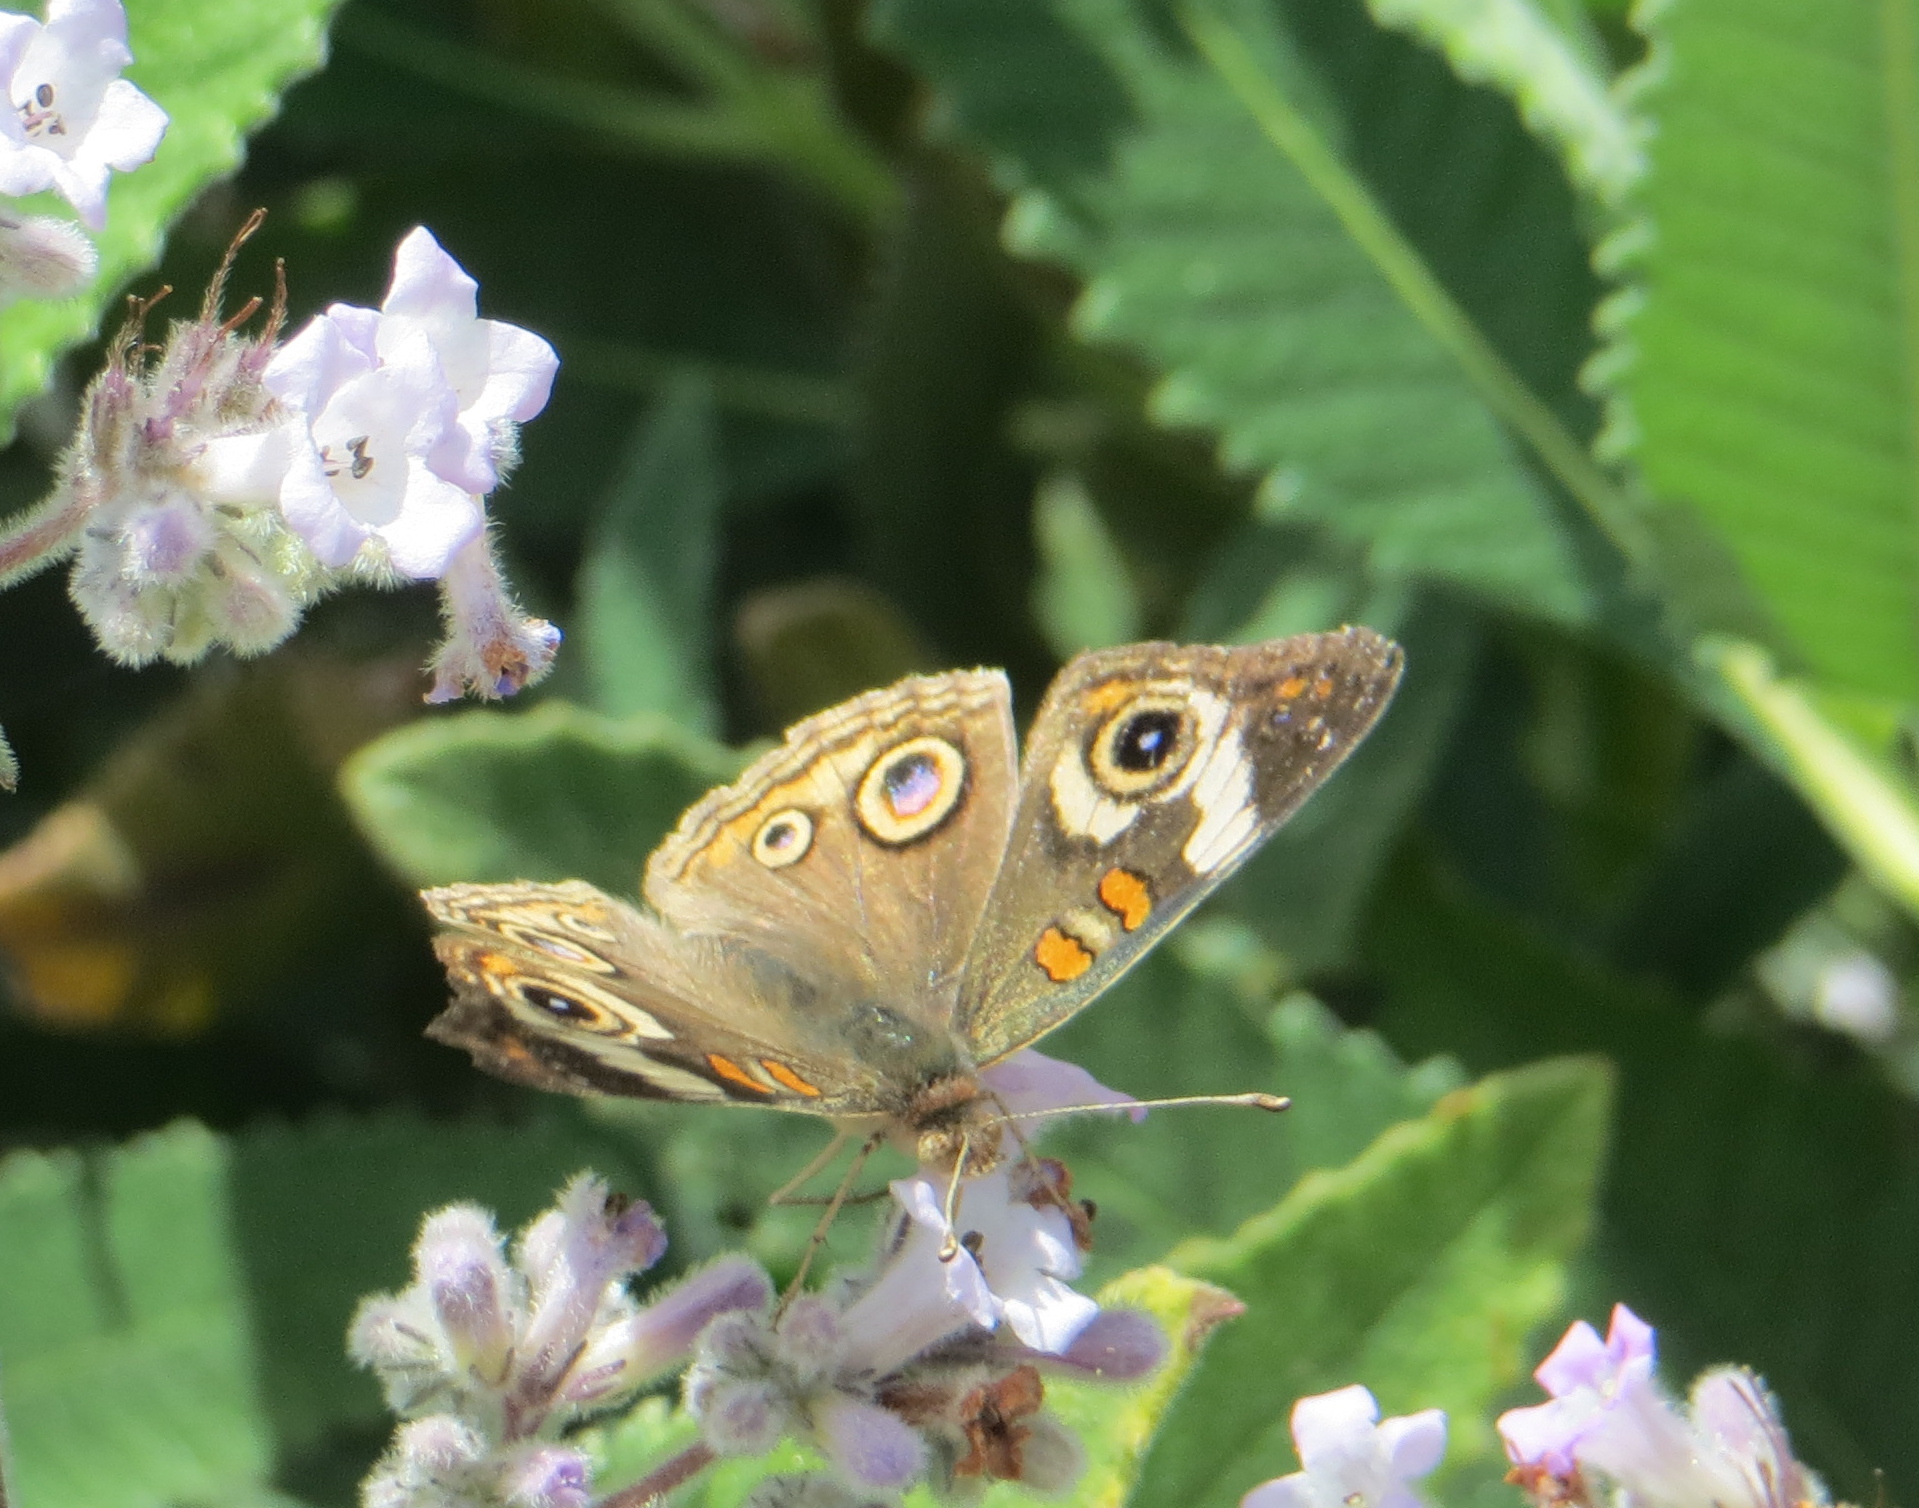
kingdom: Animalia
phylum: Arthropoda
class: Insecta
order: Lepidoptera
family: Nymphalidae
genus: Junonia
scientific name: Junonia grisea
